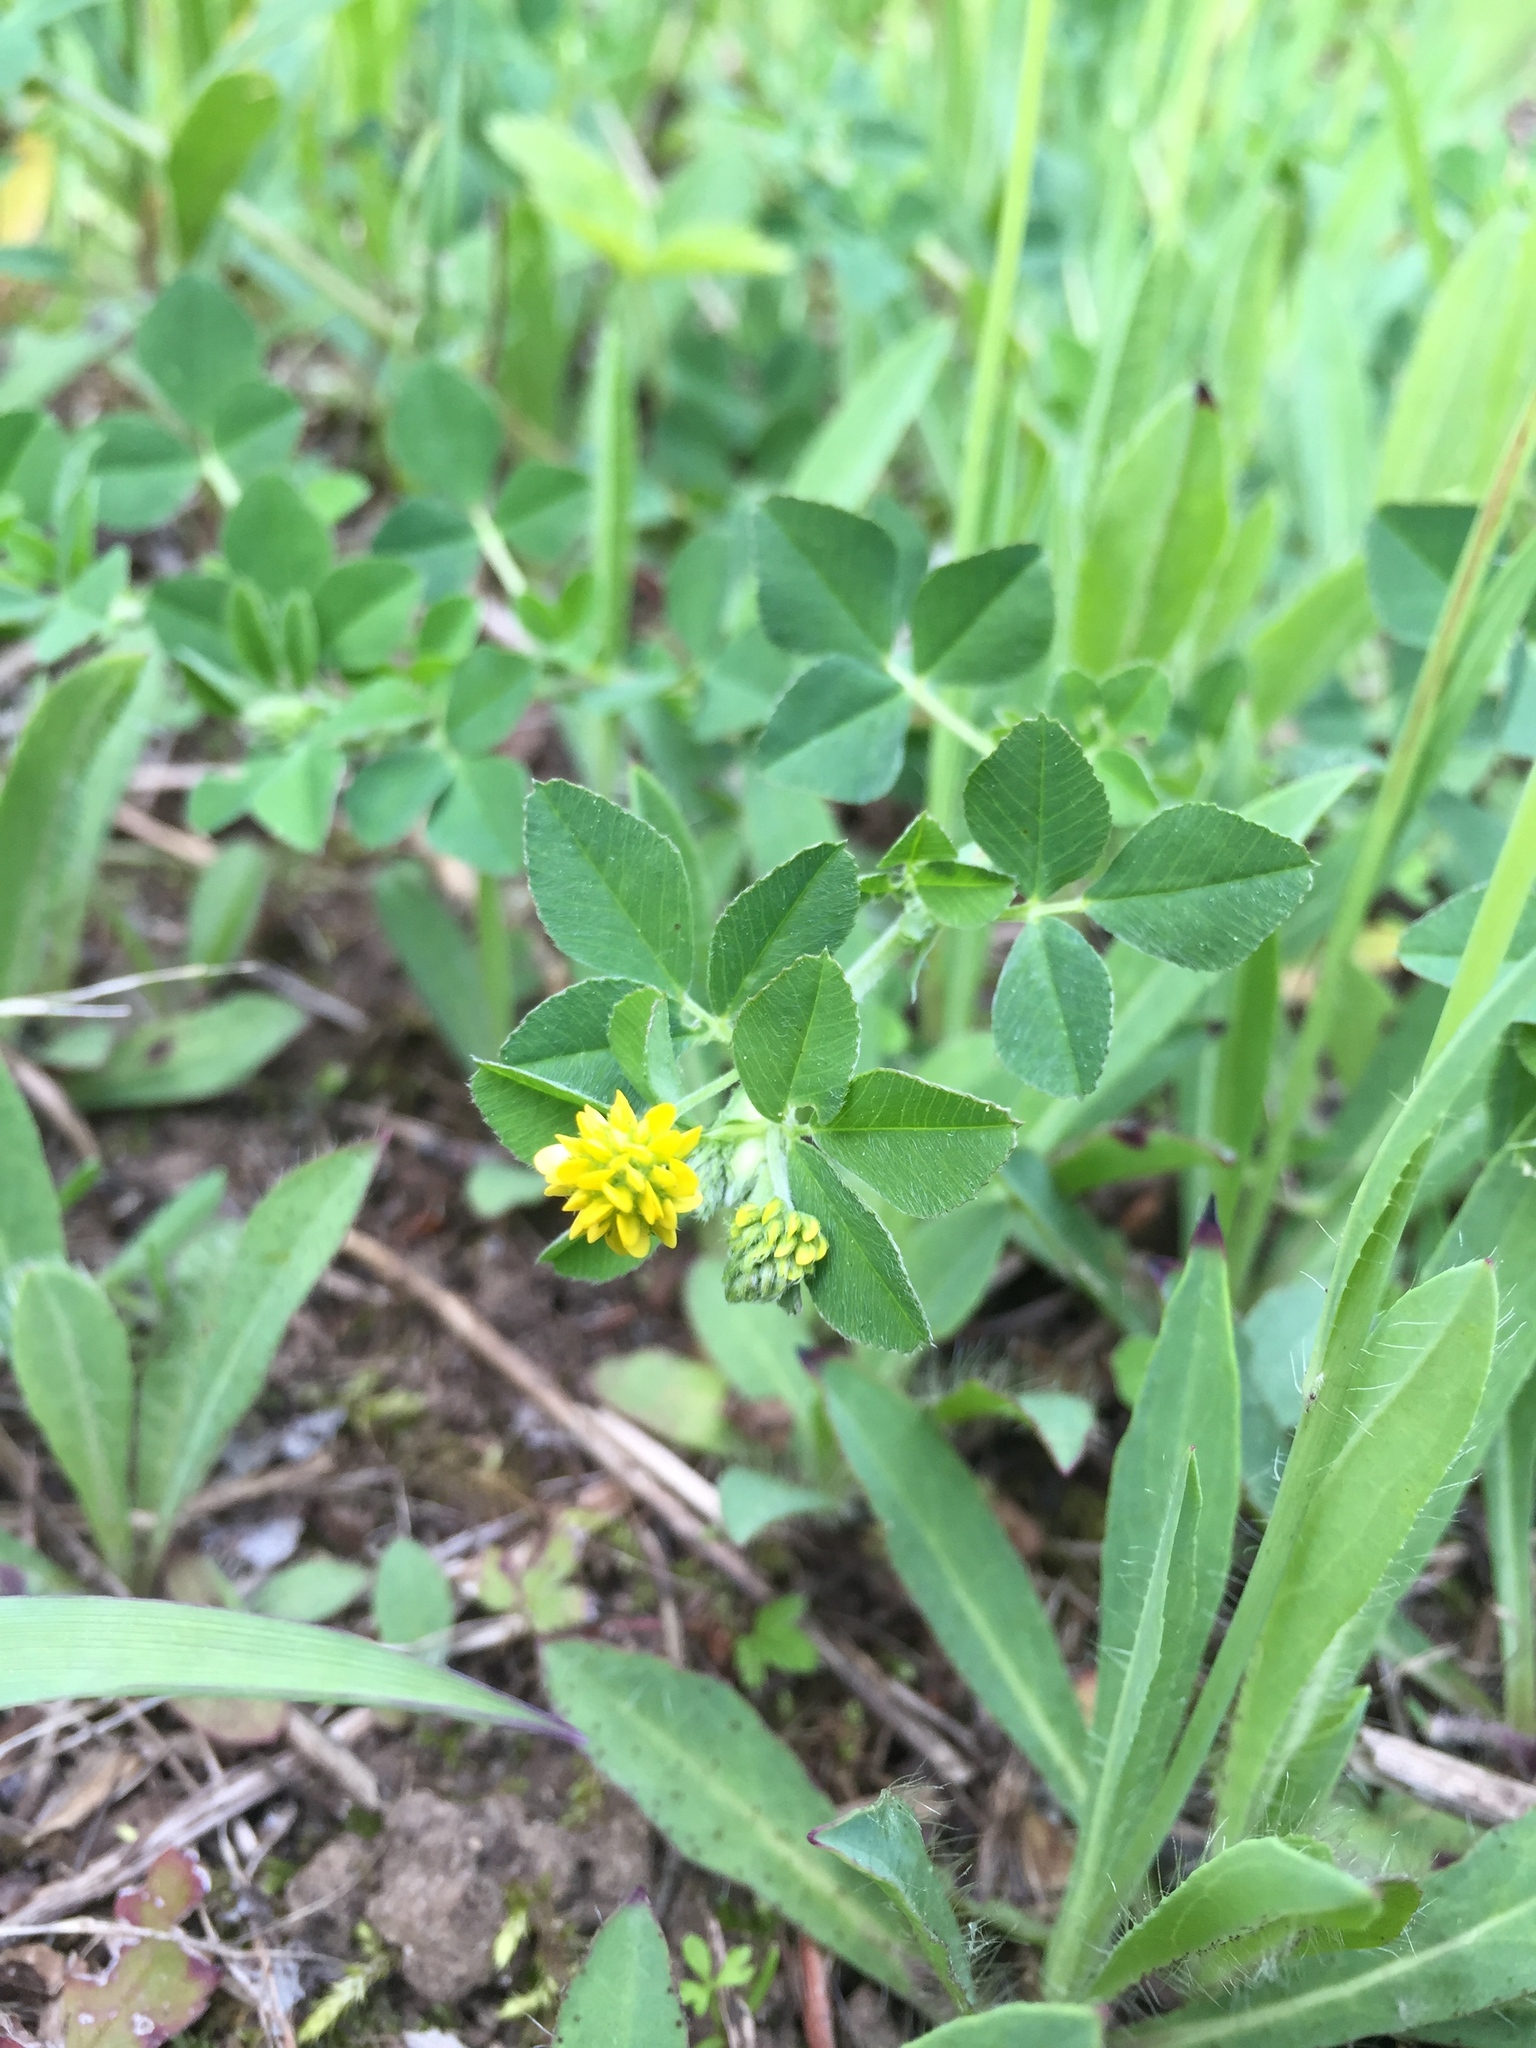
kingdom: Plantae
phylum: Tracheophyta
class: Magnoliopsida
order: Fabales
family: Fabaceae
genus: Medicago
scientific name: Medicago lupulina
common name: Black medick
